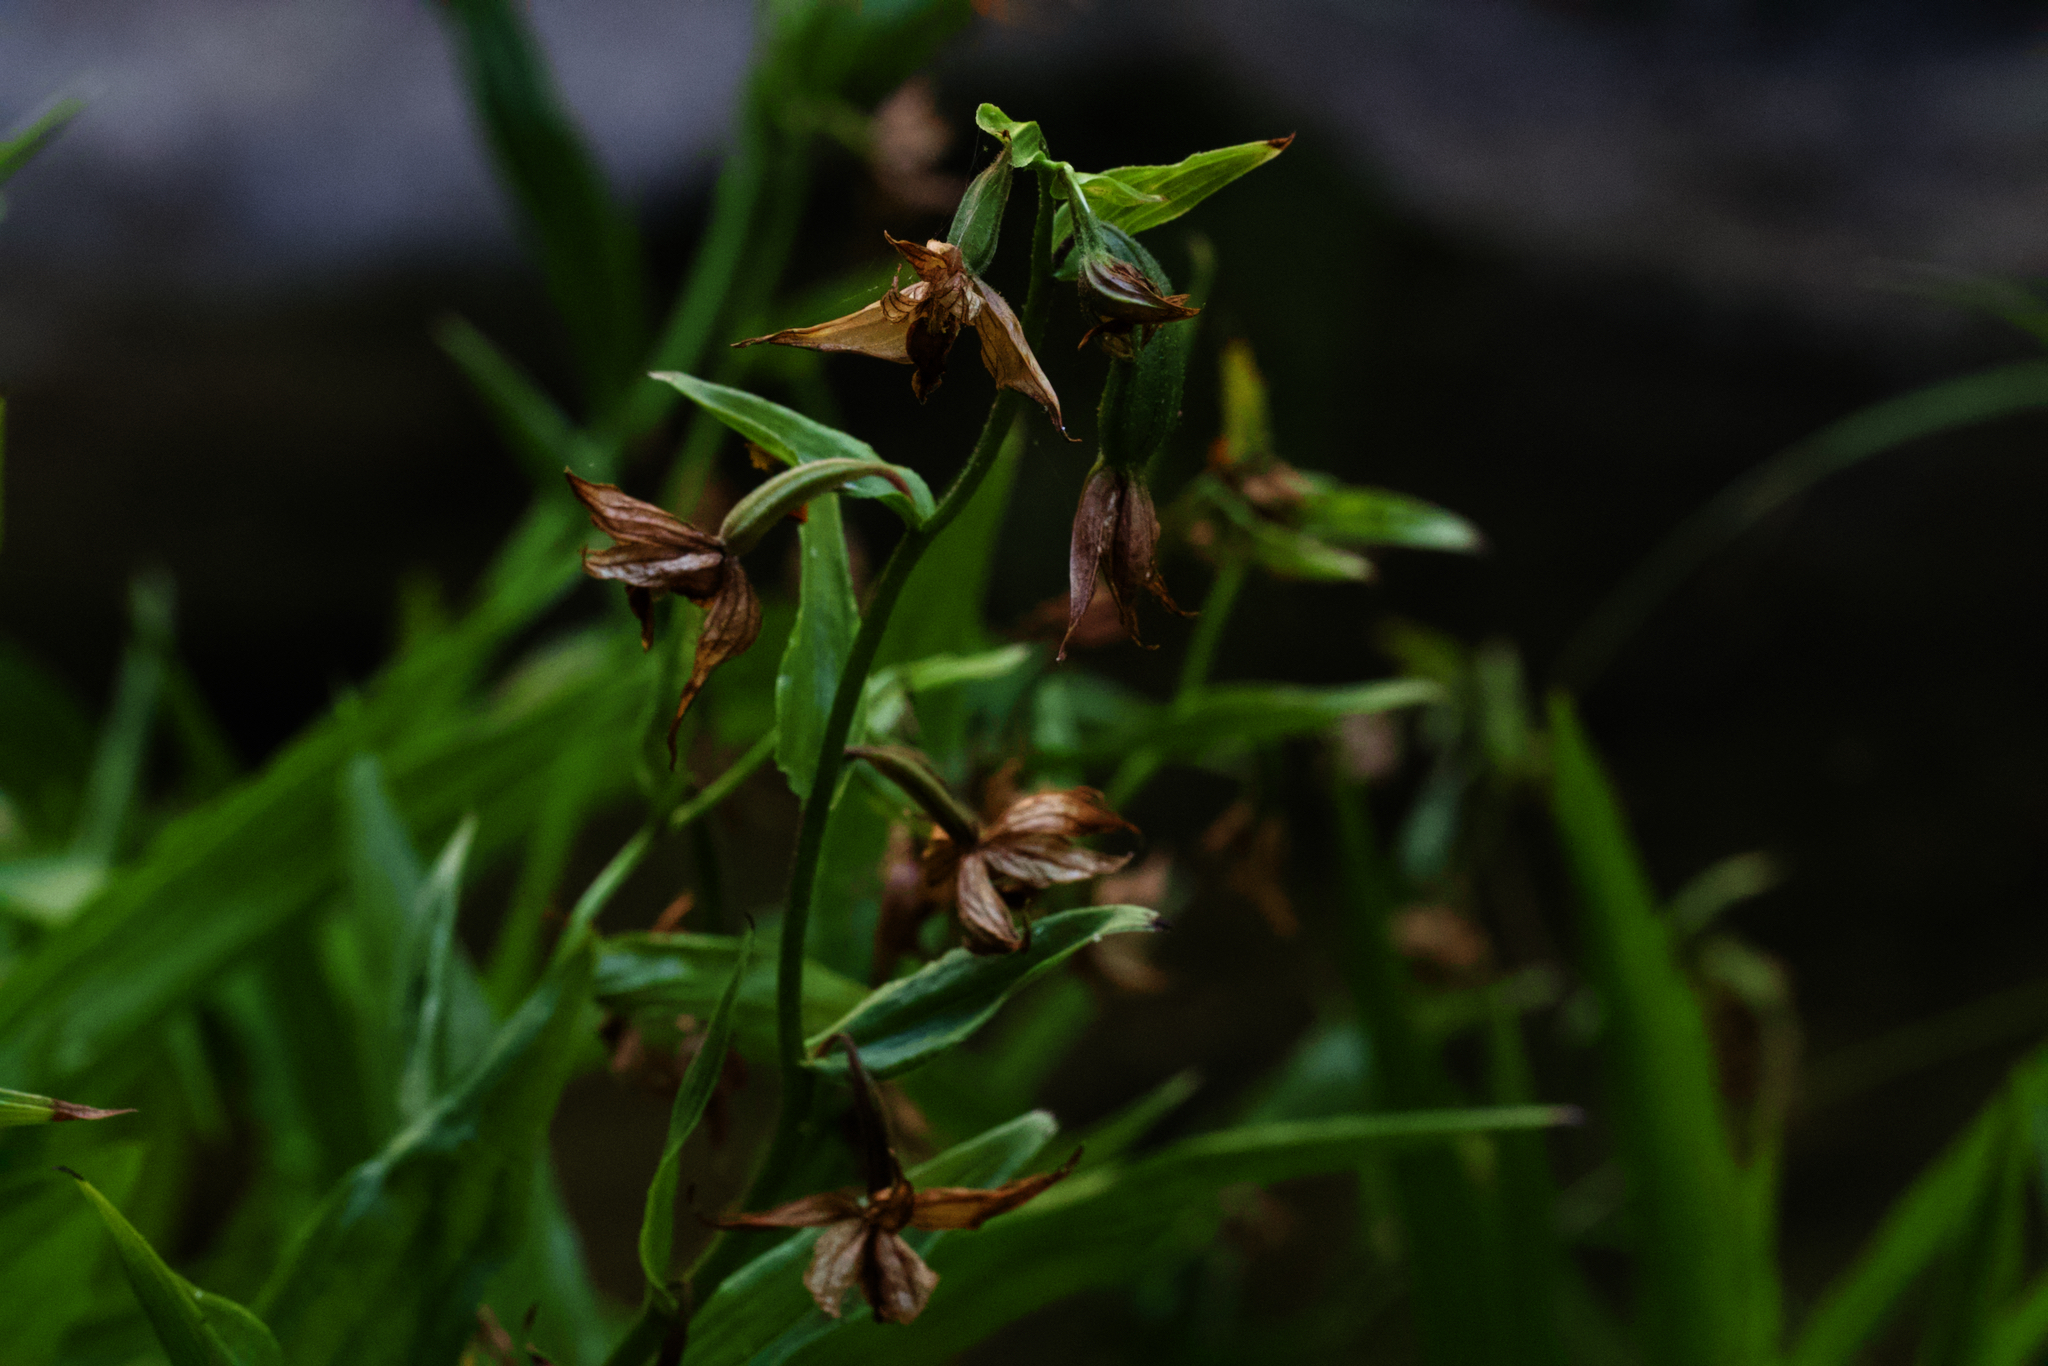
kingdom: Plantae
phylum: Tracheophyta
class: Liliopsida
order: Asparagales
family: Orchidaceae
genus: Epipactis
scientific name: Epipactis gigantea
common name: Chatterbox
